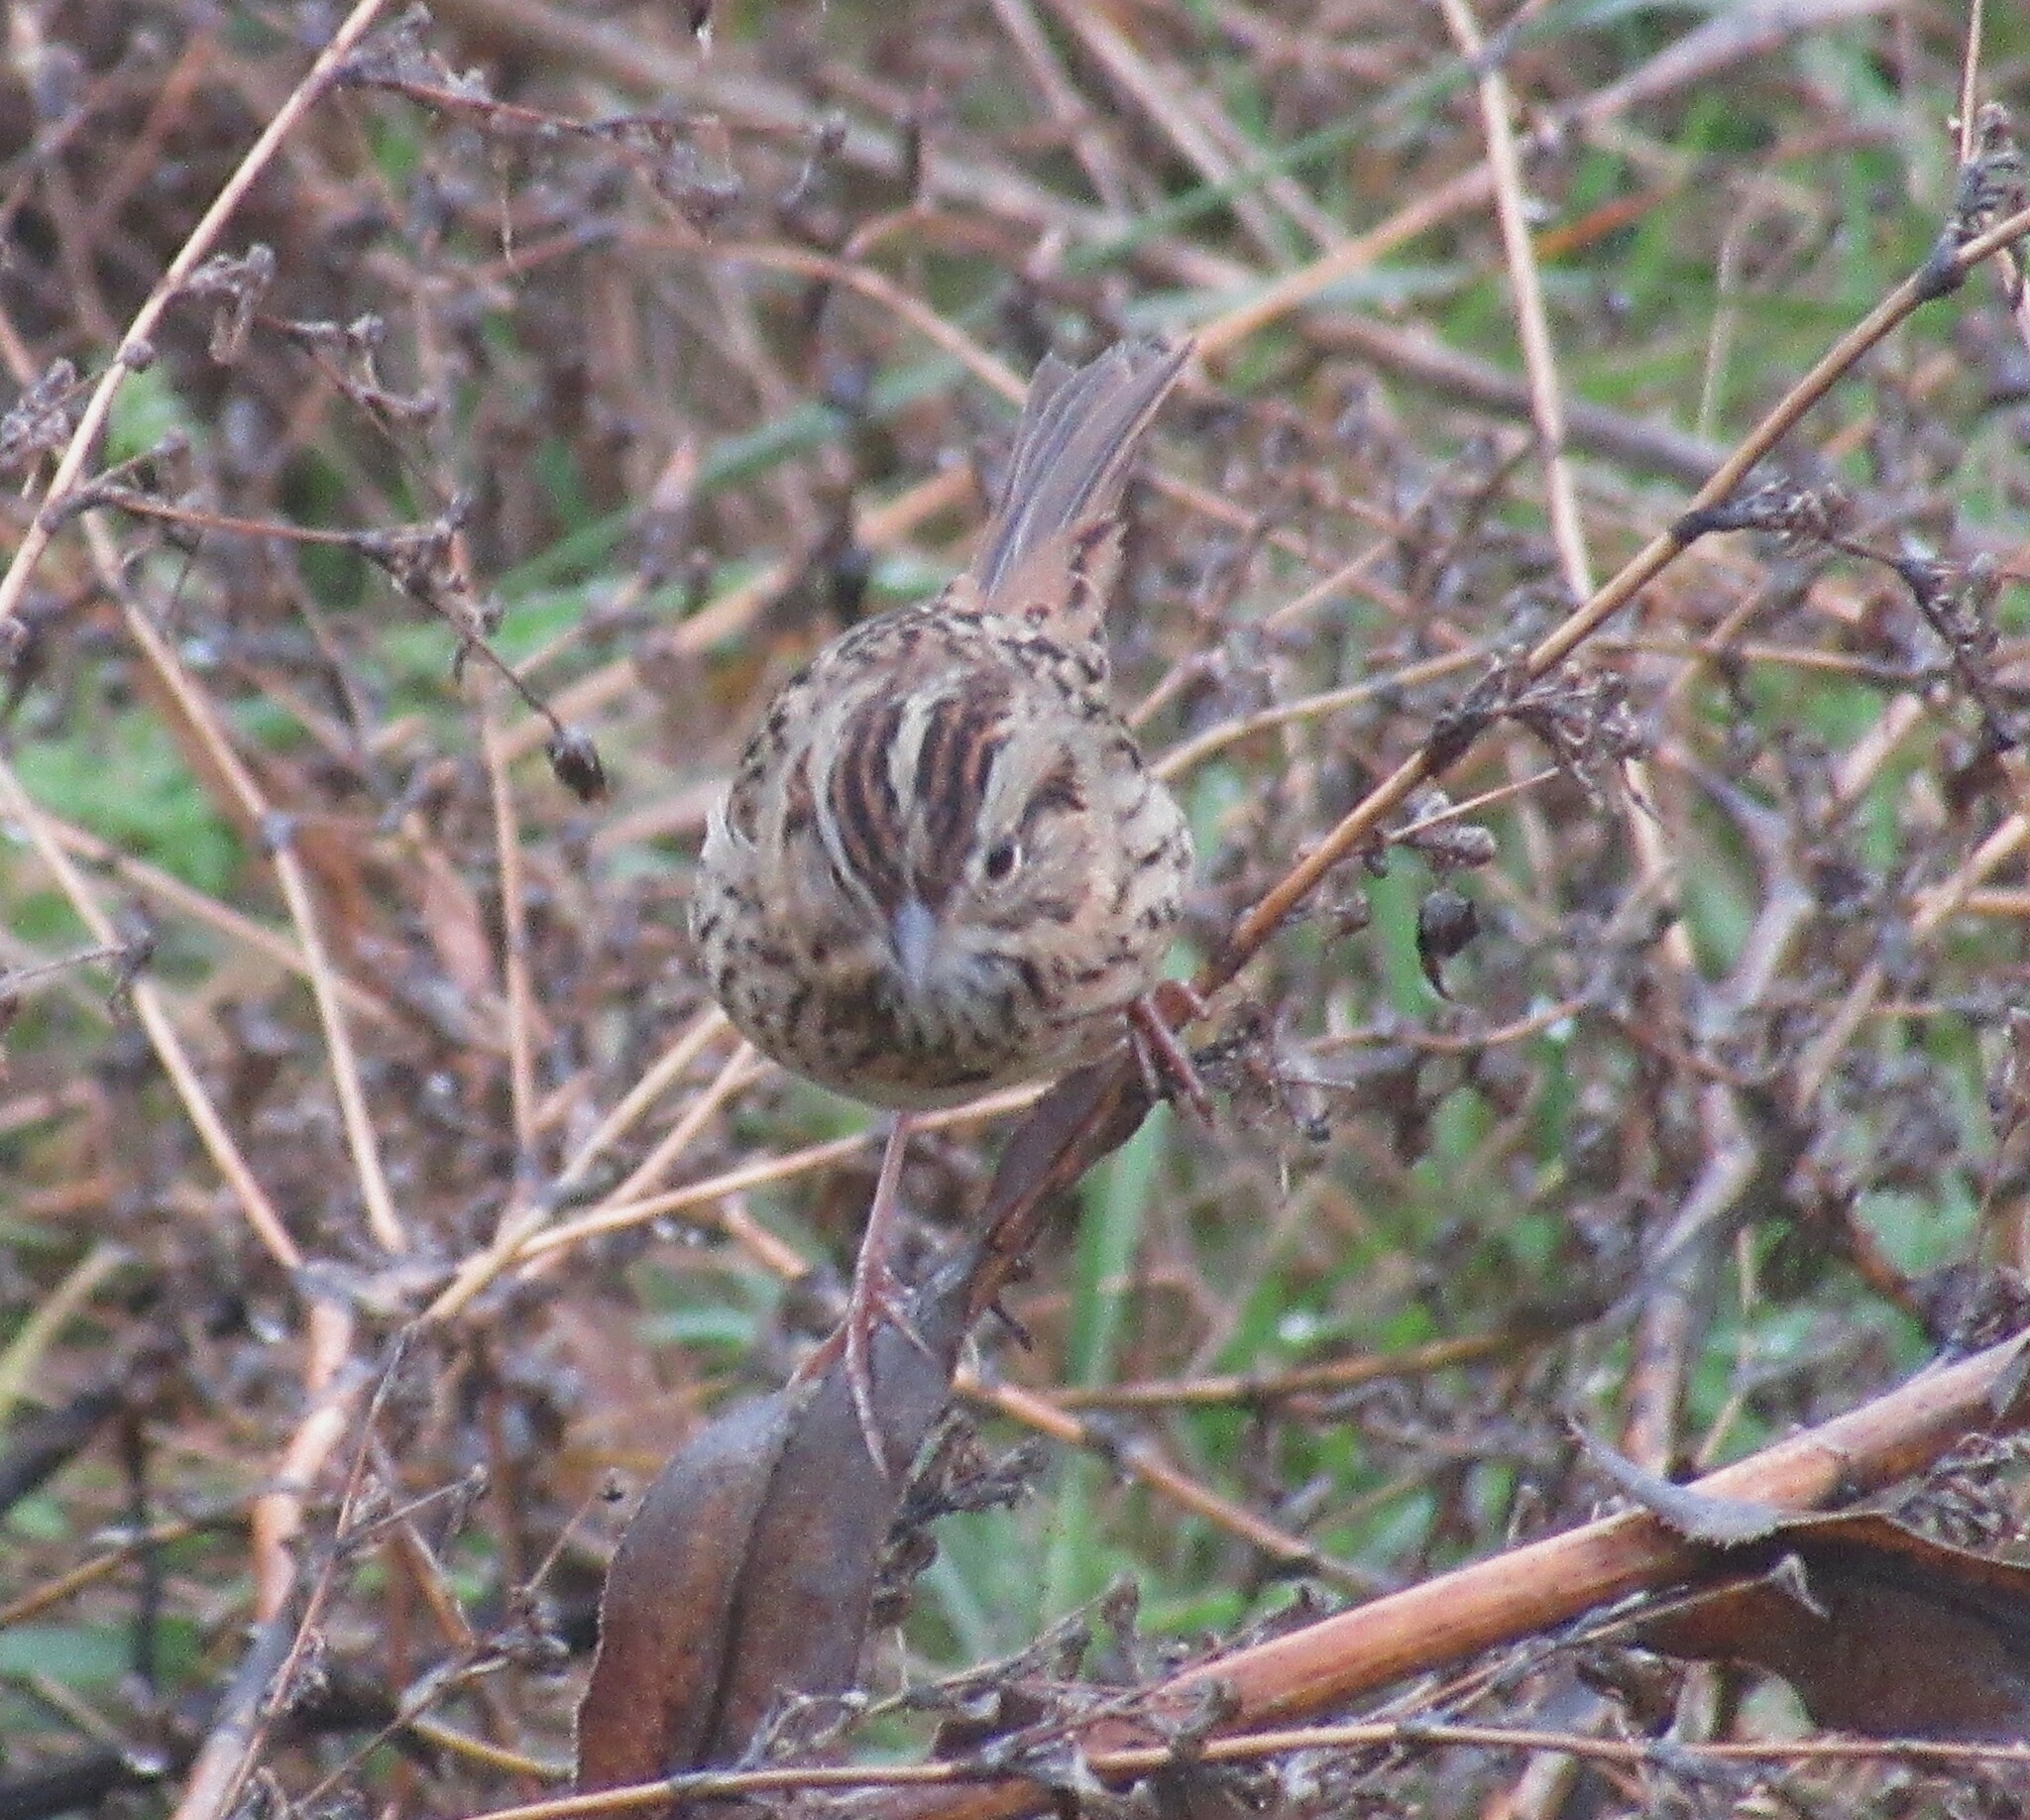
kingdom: Animalia
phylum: Chordata
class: Aves
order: Passeriformes
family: Passerellidae
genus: Melospiza
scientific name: Melospiza lincolnii
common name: Lincoln's sparrow
